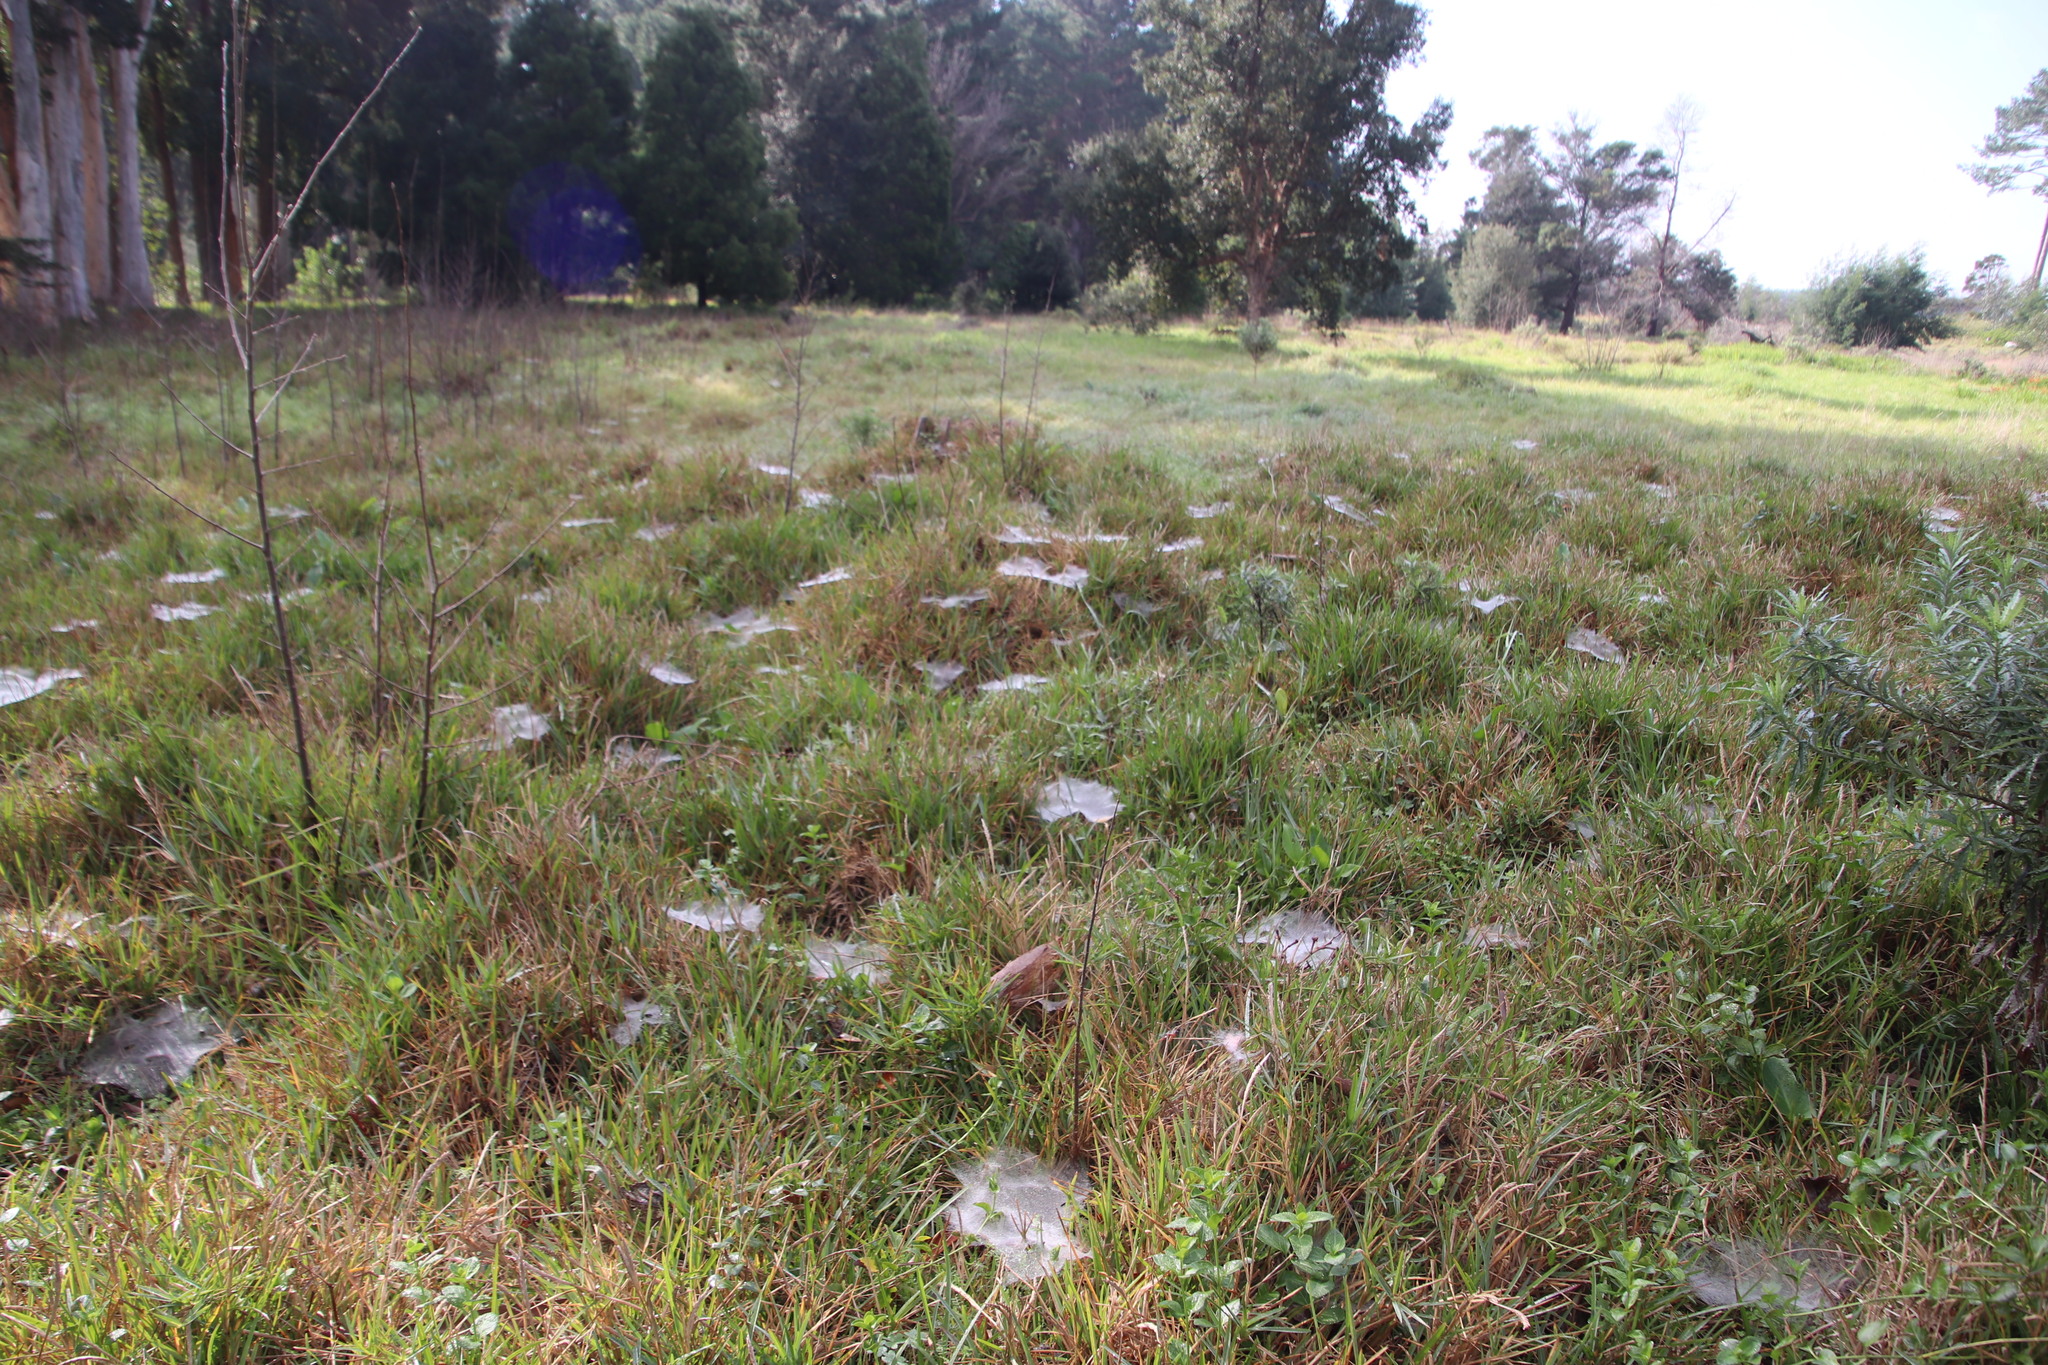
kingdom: Animalia
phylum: Arthropoda
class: Arachnida
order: Araneae
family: Pisauridae
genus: Euprosthenopsis
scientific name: Euprosthenopsis pulchella
